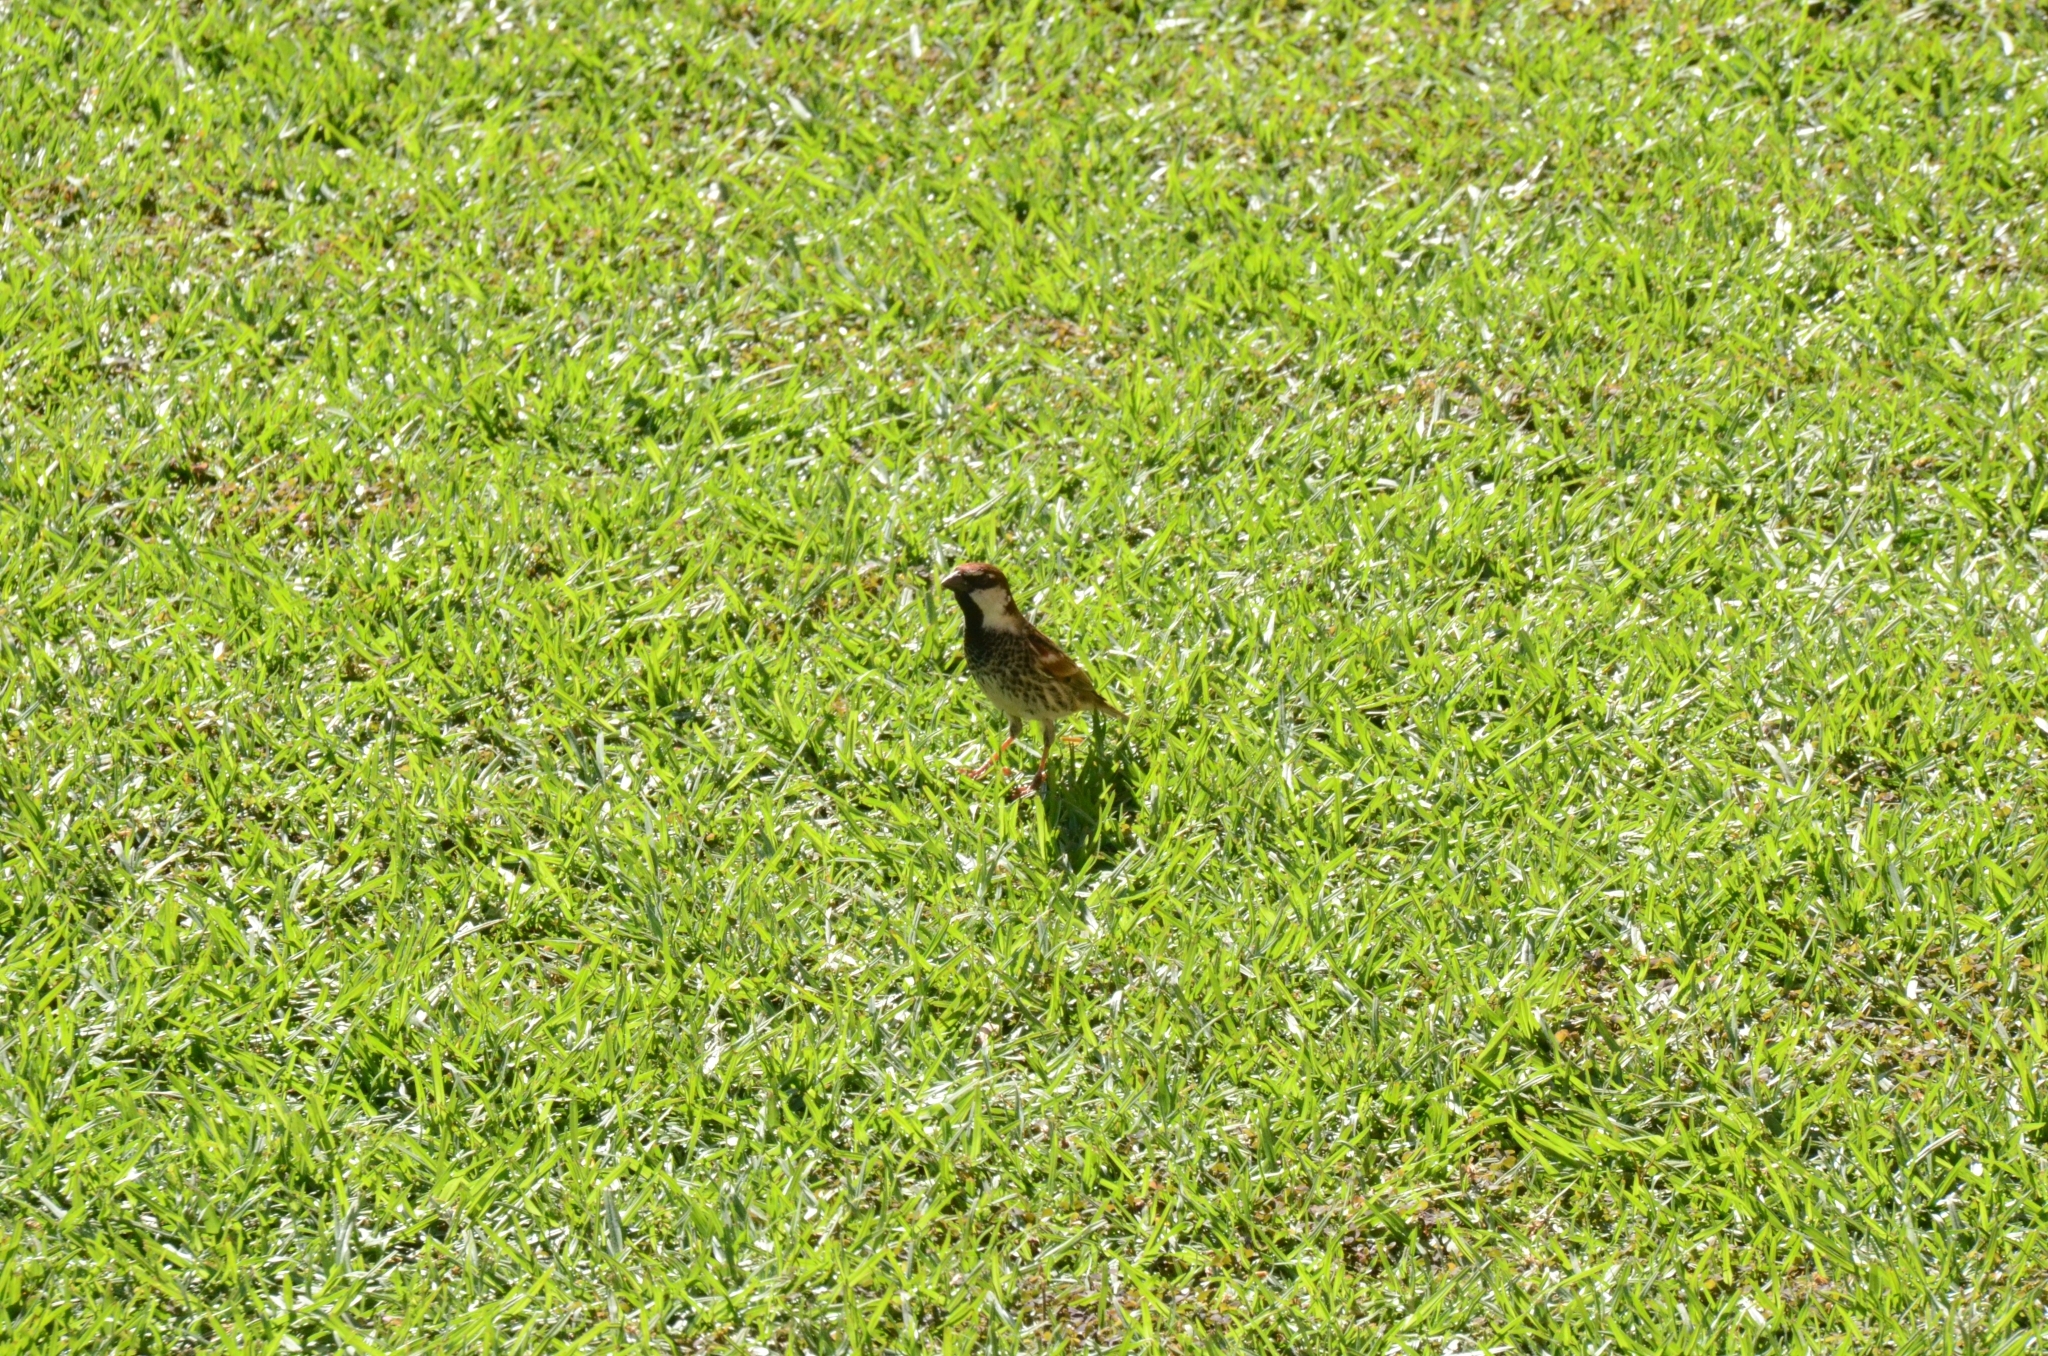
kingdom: Animalia
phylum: Chordata
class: Aves
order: Passeriformes
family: Passeridae
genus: Passer
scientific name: Passer hispaniolensis
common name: Spanish sparrow
